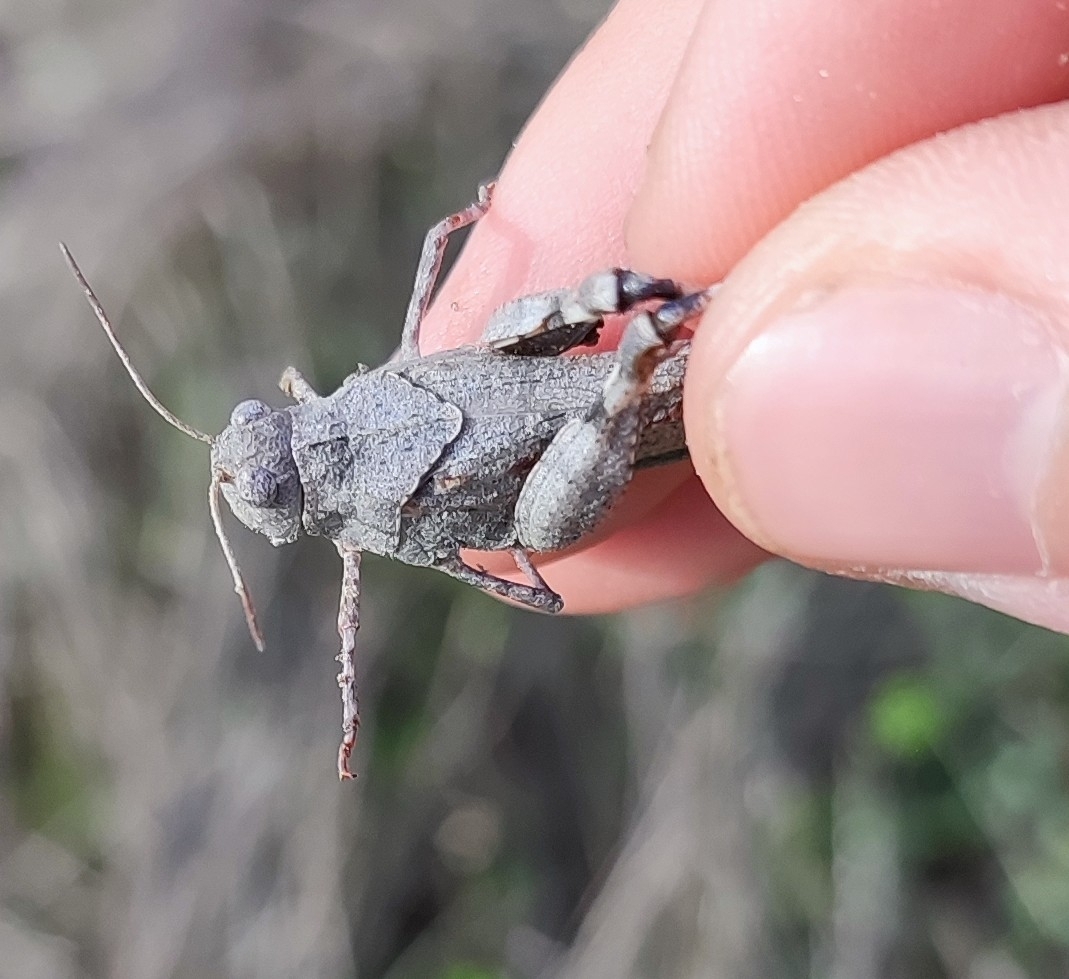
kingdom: Animalia
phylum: Arthropoda
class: Insecta
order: Orthoptera
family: Acrididae
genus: Oedipoda
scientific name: Oedipoda caerulescens
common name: Blue-winged grasshopper
